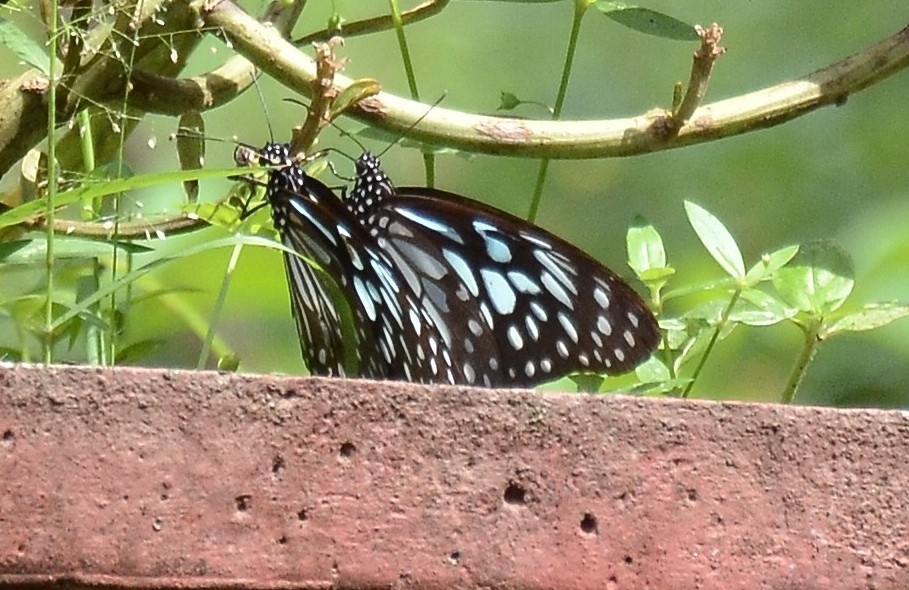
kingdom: Animalia
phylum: Arthropoda
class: Insecta
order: Lepidoptera
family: Nymphalidae
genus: Tirumala
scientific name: Tirumala septentrionis
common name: Dark blue tiger butterfly
